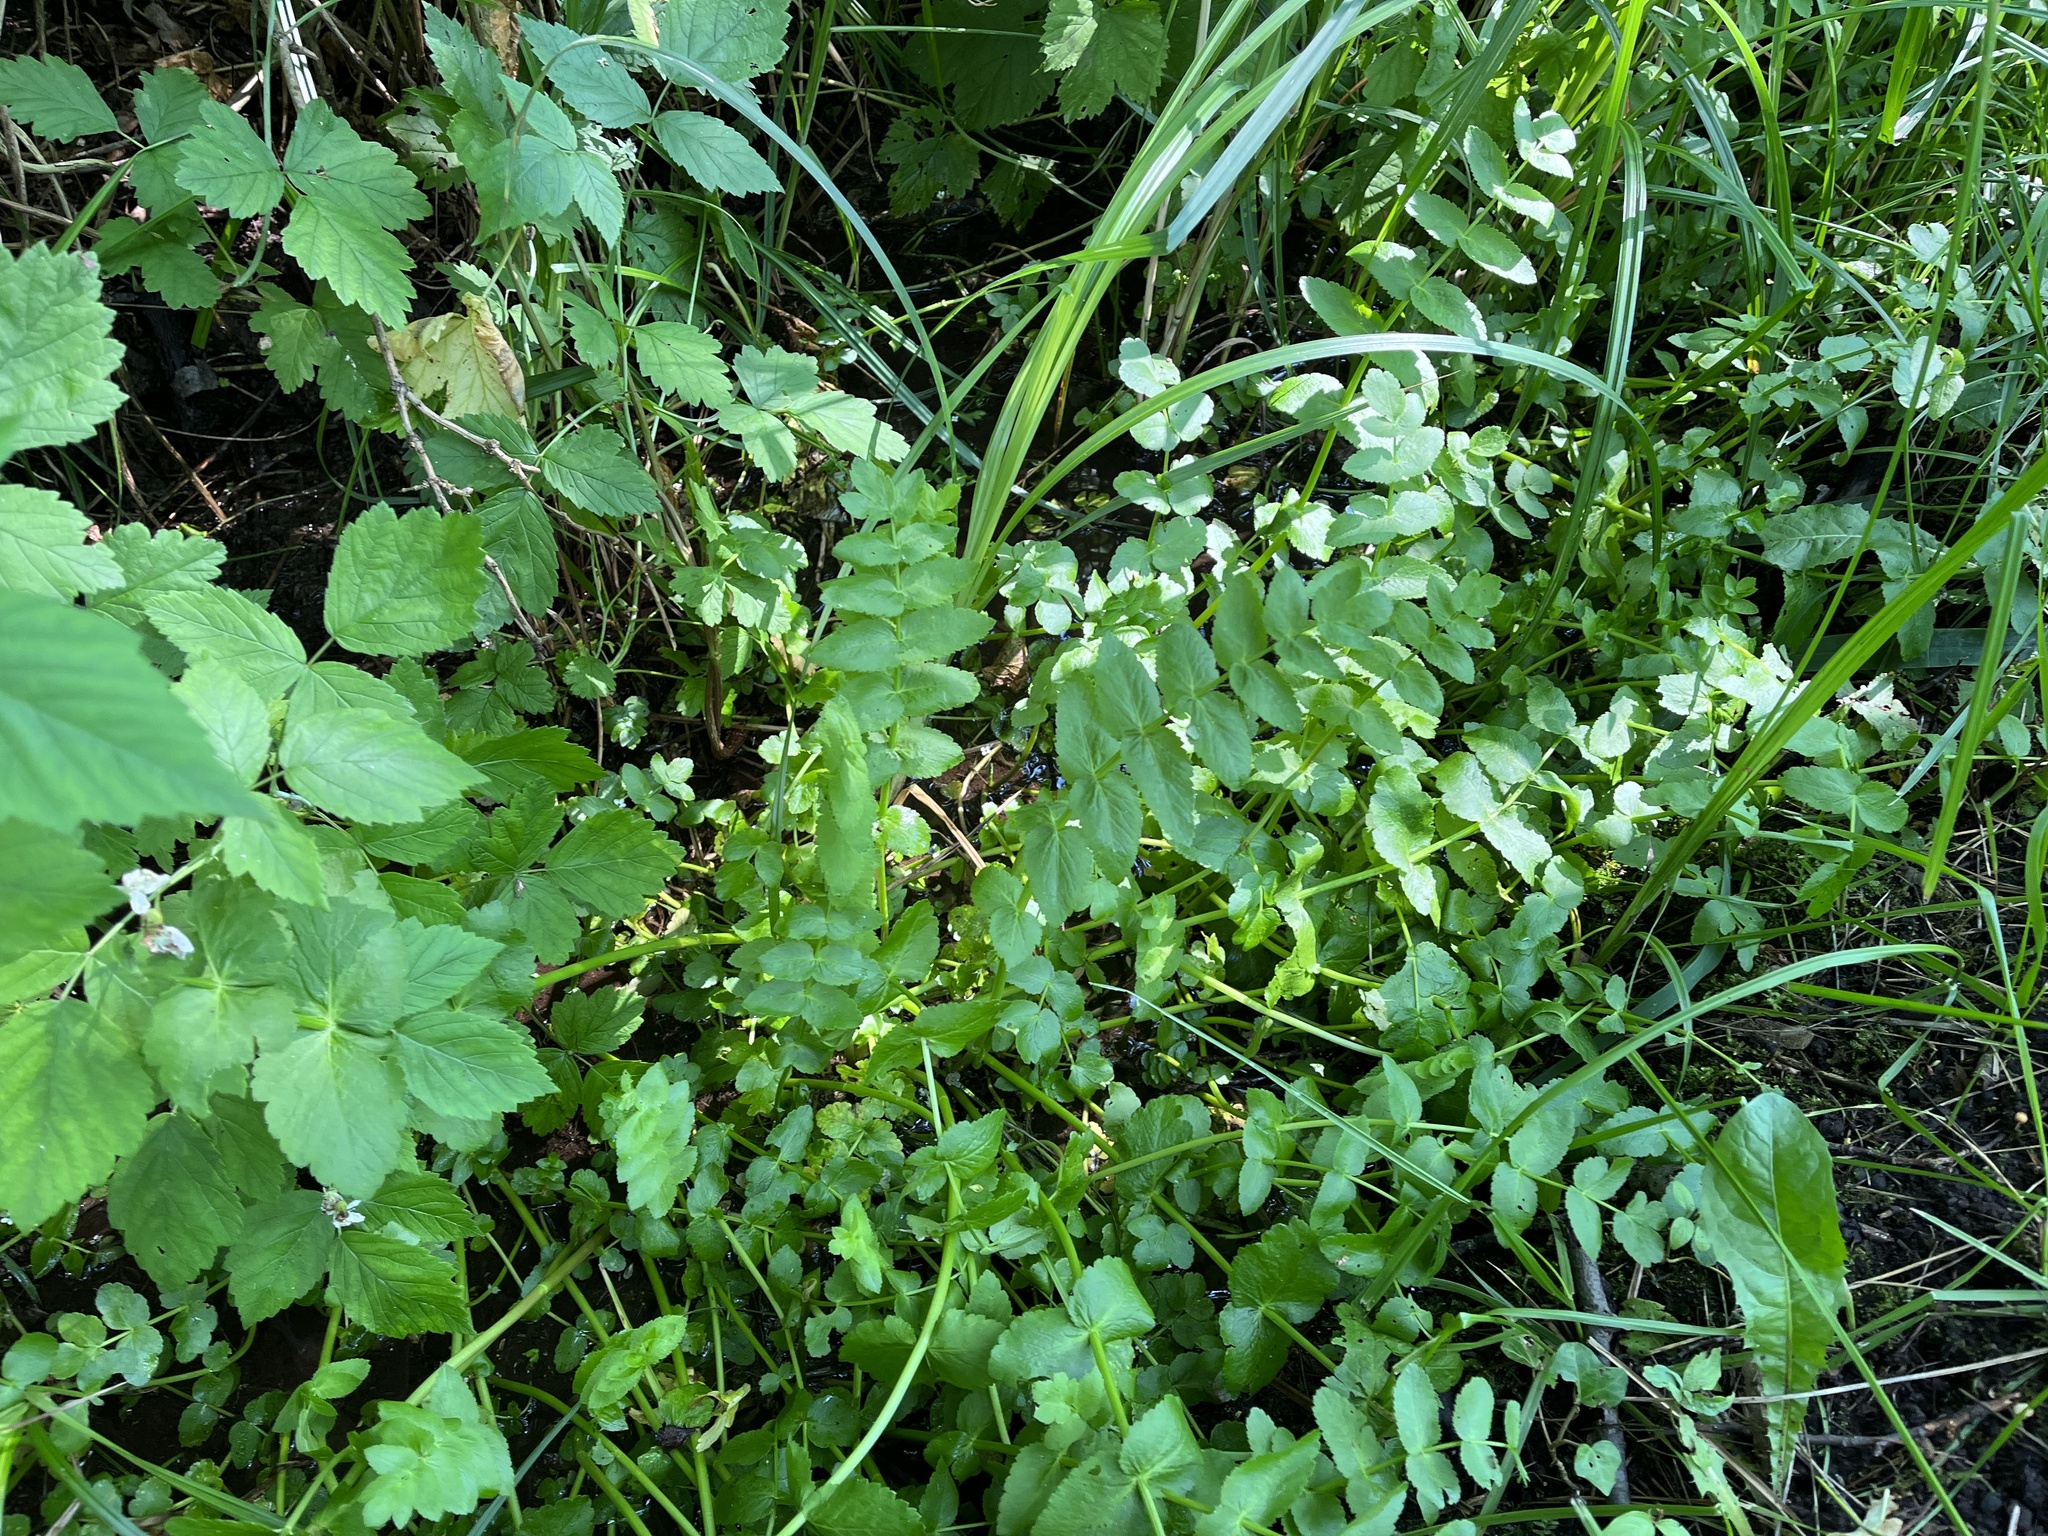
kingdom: Plantae
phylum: Tracheophyta
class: Magnoliopsida
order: Apiales
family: Apiaceae
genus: Berula
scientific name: Berula erecta
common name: Lesser water-parsnip
